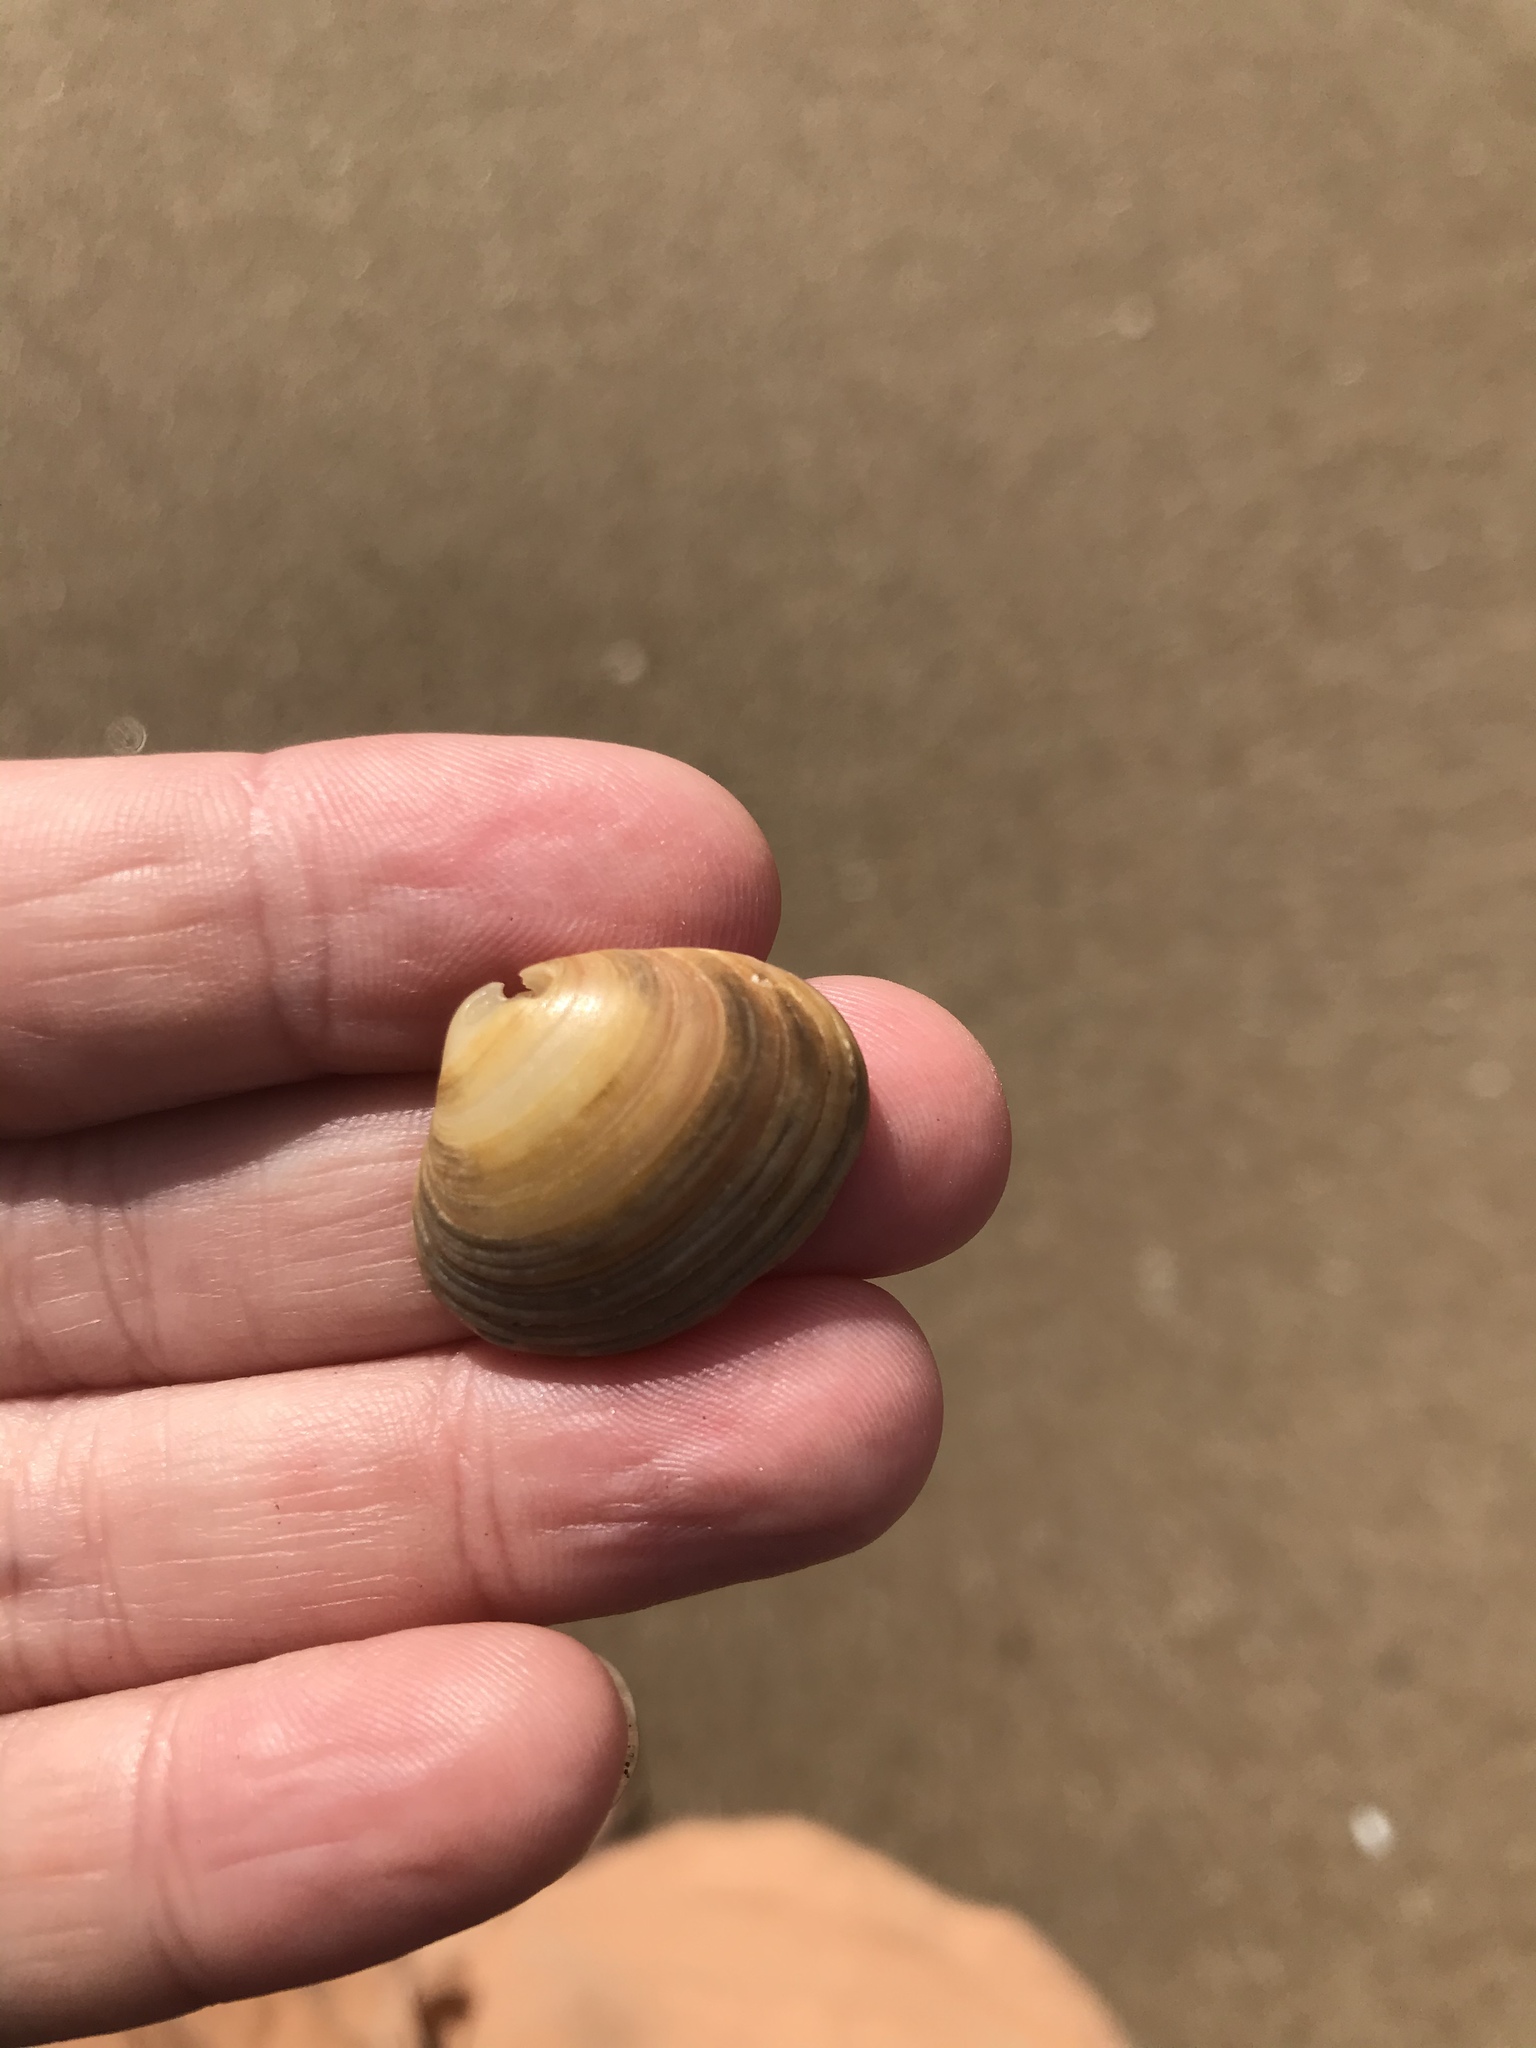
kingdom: Animalia
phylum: Mollusca
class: Bivalvia
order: Venerida
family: Veneridae
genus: Tawera
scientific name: Tawera spissa
